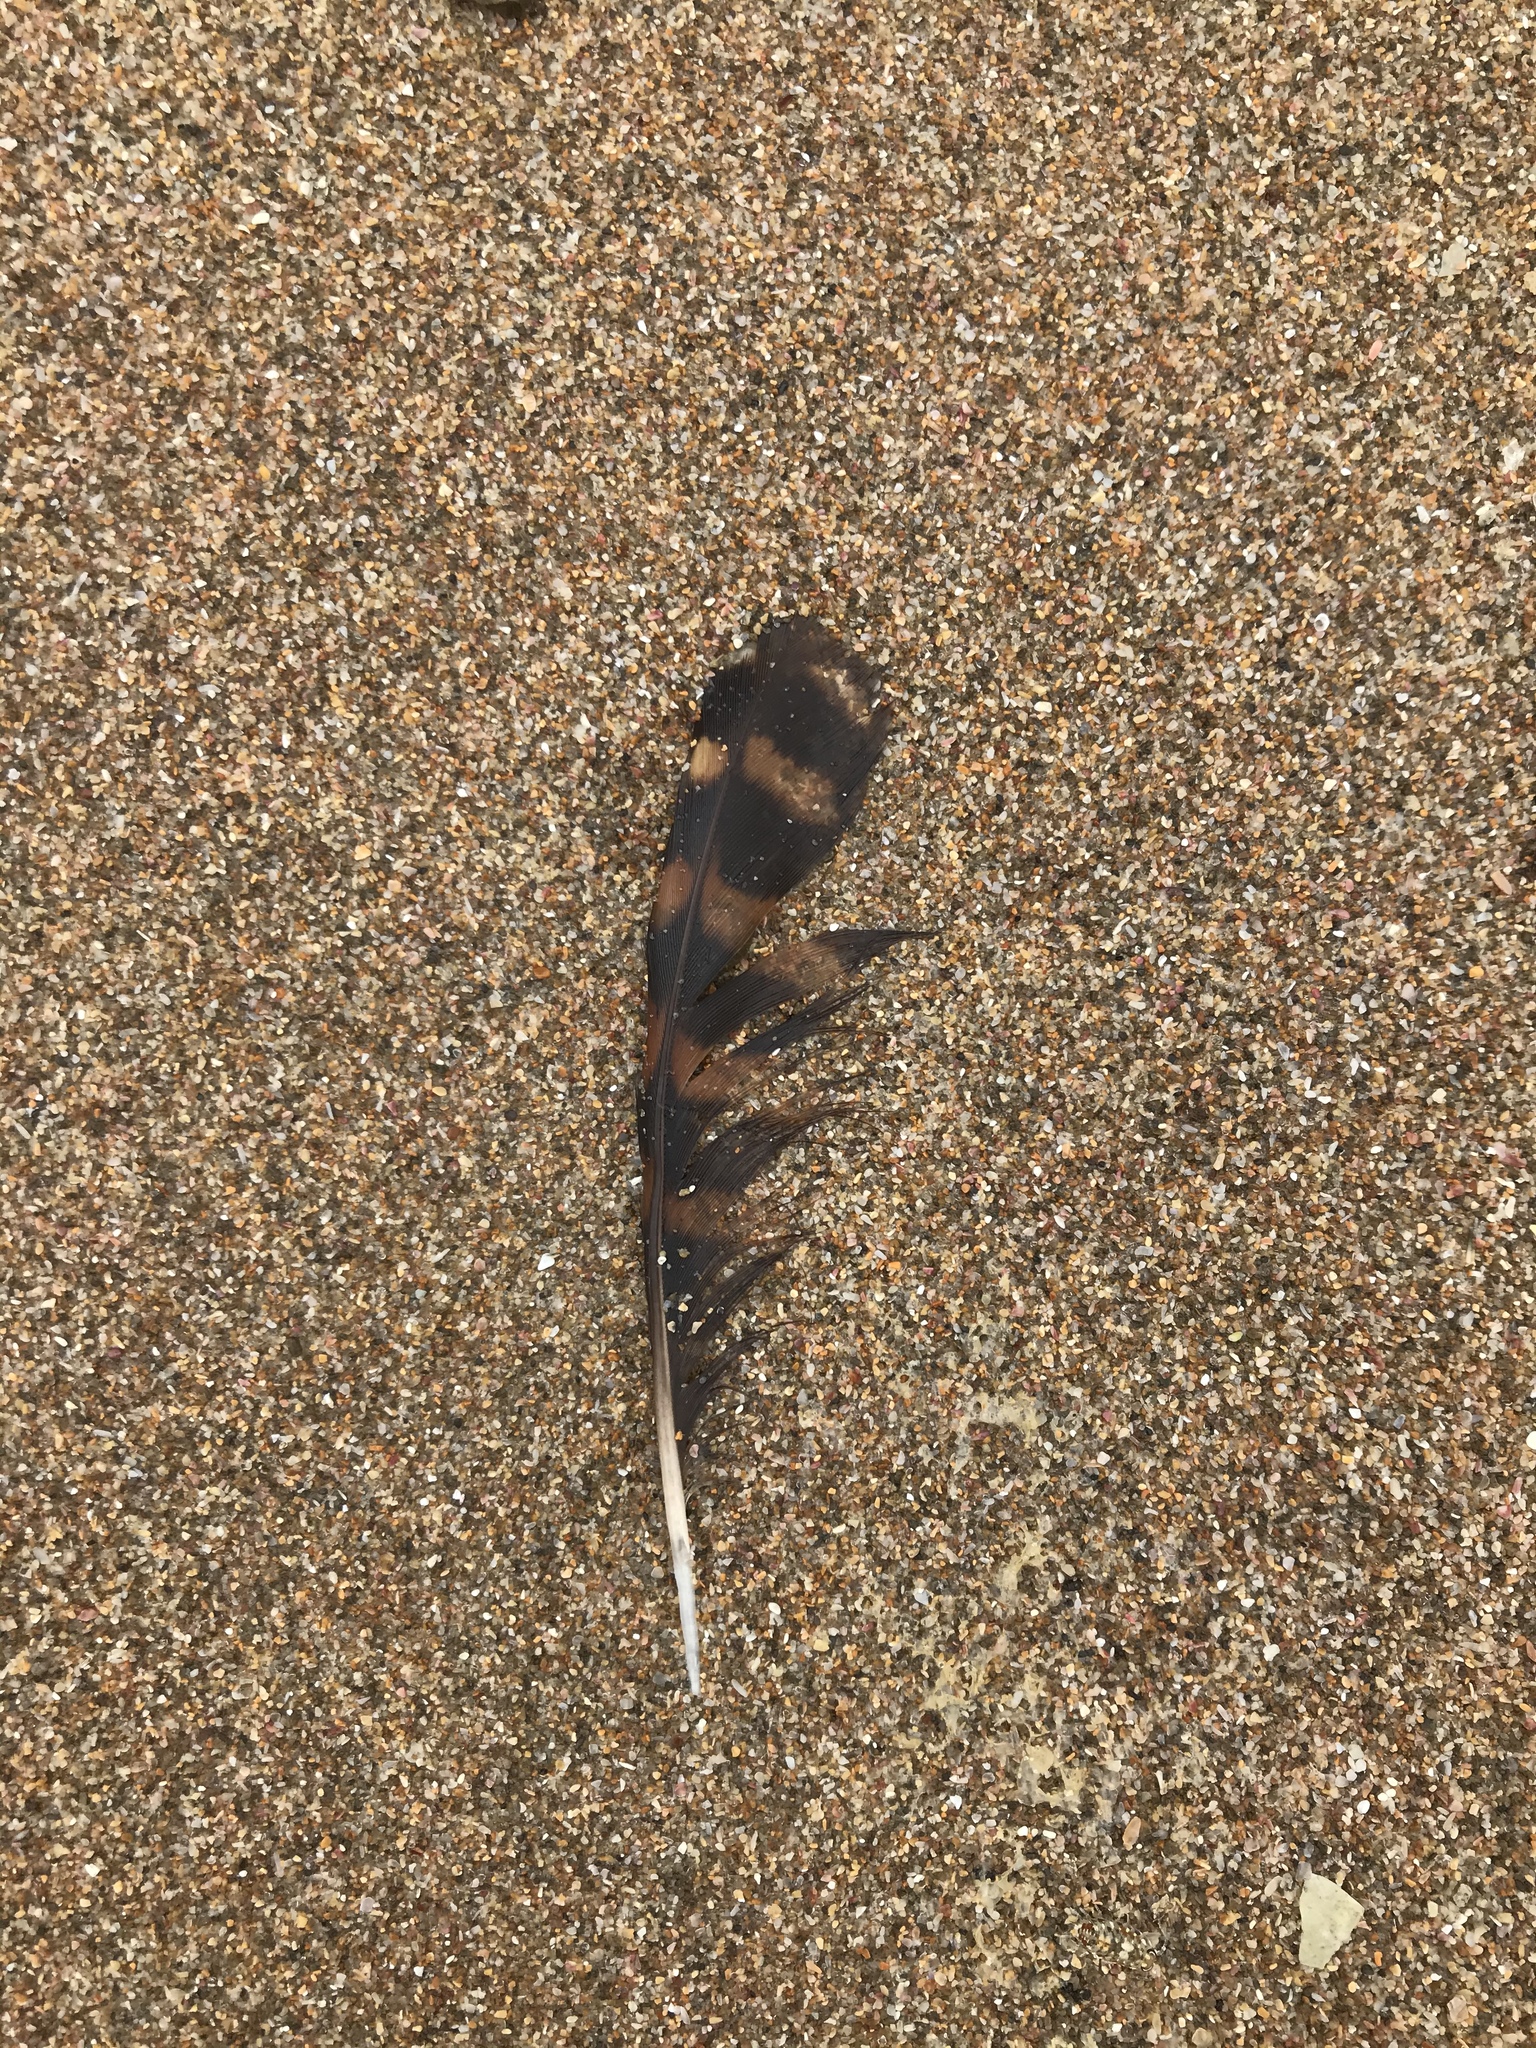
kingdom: Animalia
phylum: Chordata
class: Aves
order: Gruiformes
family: Rallidae
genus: Gallirallus
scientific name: Gallirallus philippensis
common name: Buff-banded rail
